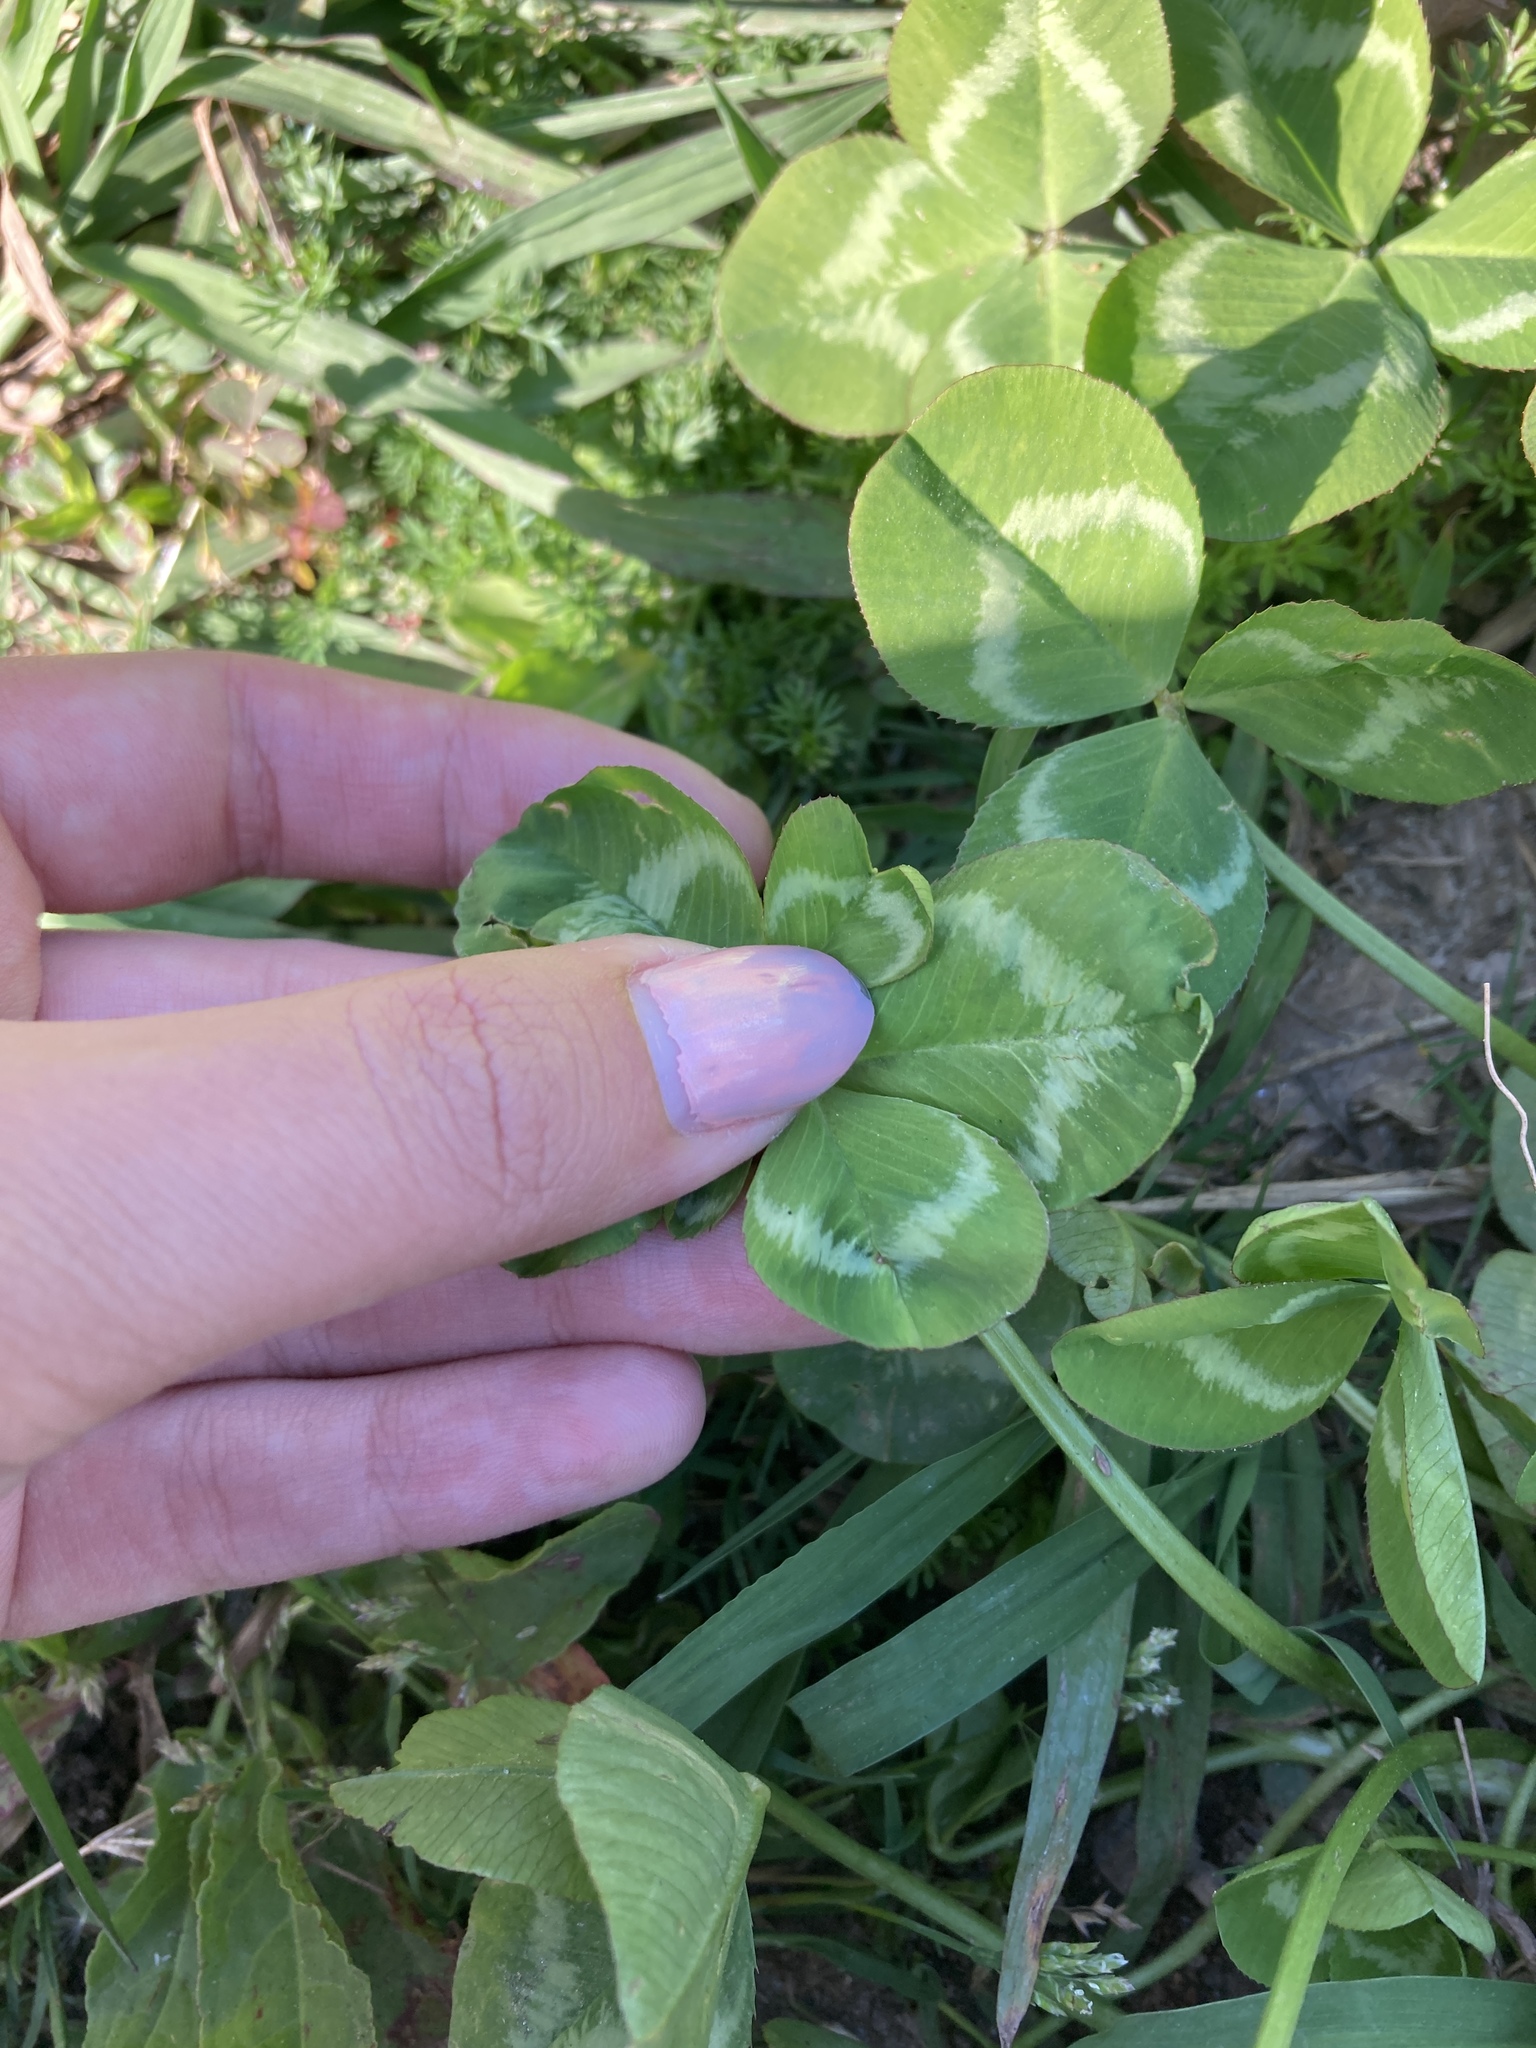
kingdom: Plantae
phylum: Tracheophyta
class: Magnoliopsida
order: Fabales
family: Fabaceae
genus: Trifolium
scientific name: Trifolium repens
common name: White clover
